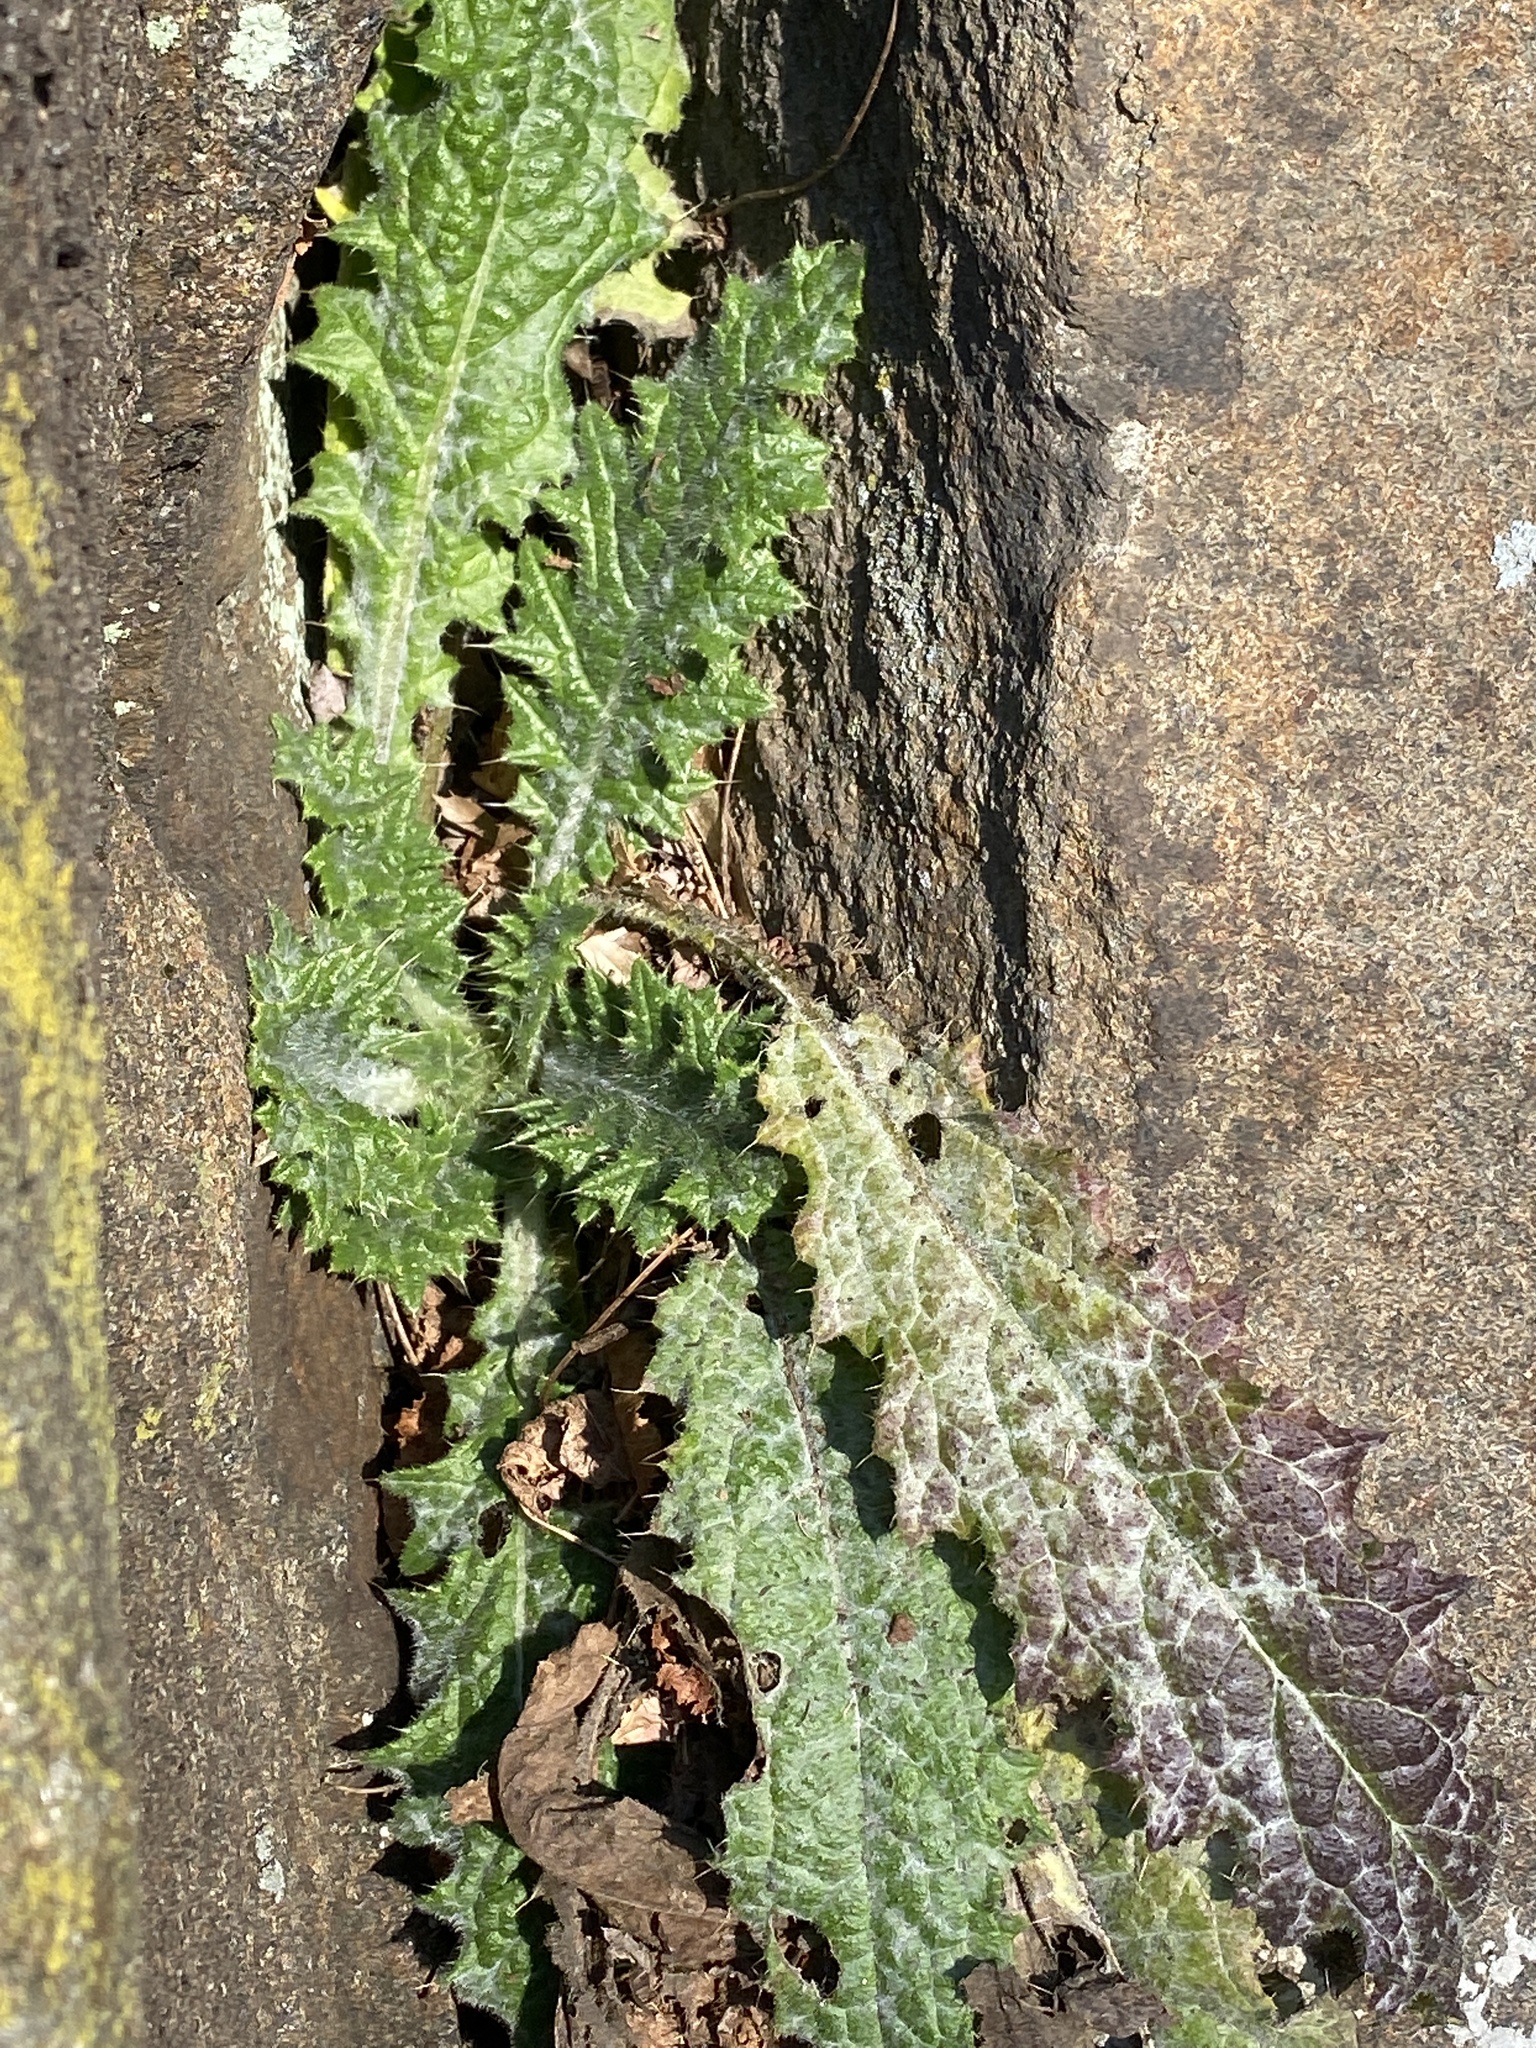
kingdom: Plantae
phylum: Tracheophyta
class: Magnoliopsida
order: Asterales
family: Asteraceae
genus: Cirsium
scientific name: Cirsium vulgare
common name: Bull thistle
